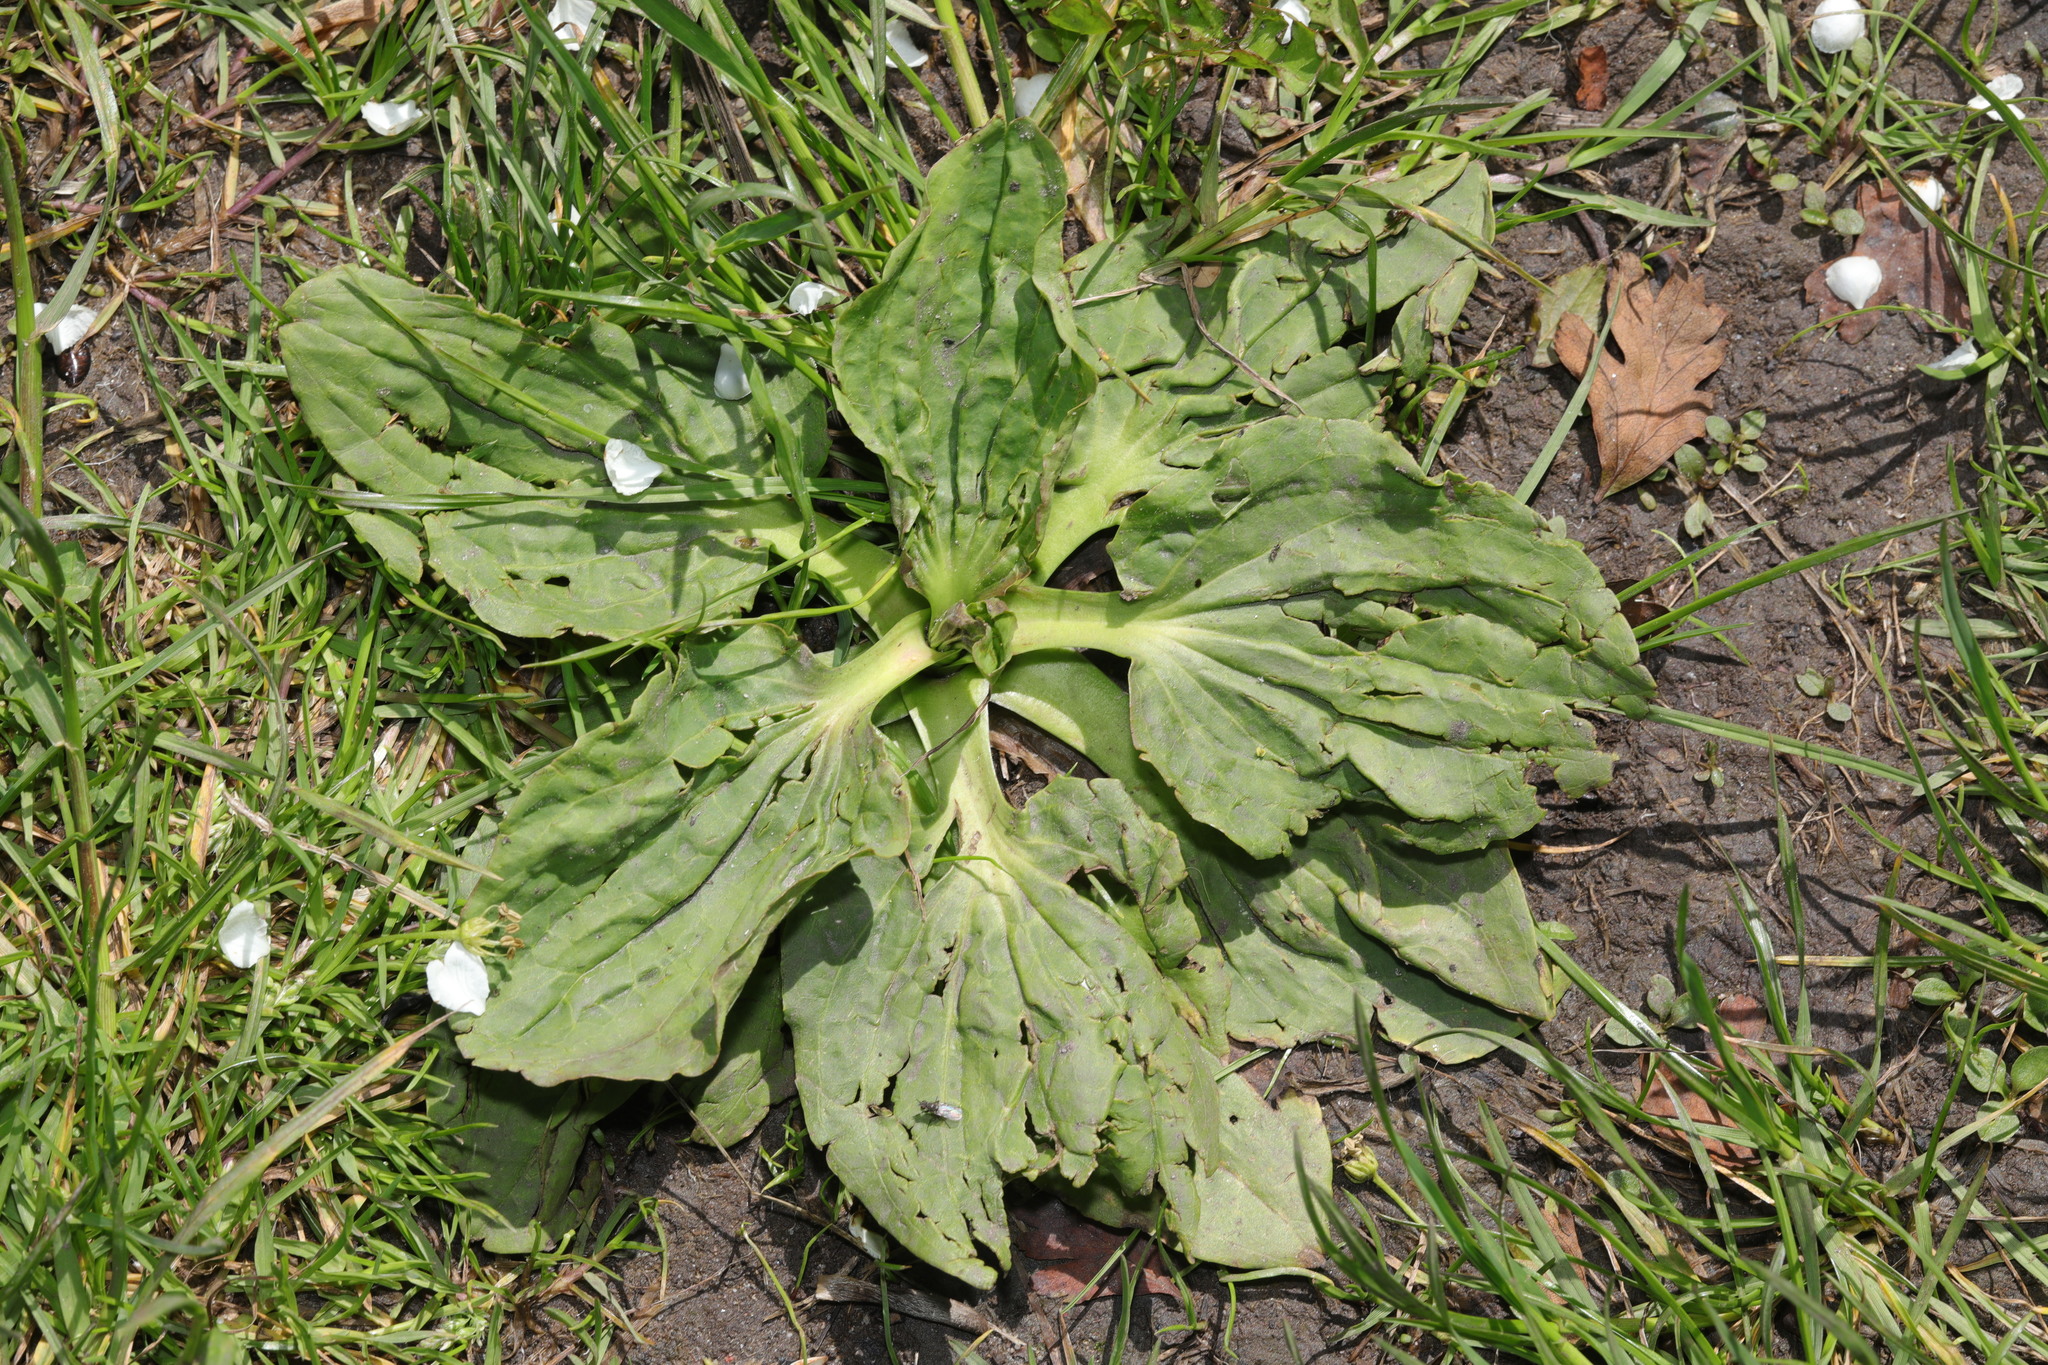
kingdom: Plantae
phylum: Tracheophyta
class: Magnoliopsida
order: Lamiales
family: Plantaginaceae
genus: Plantago
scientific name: Plantago major
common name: Common plantain
